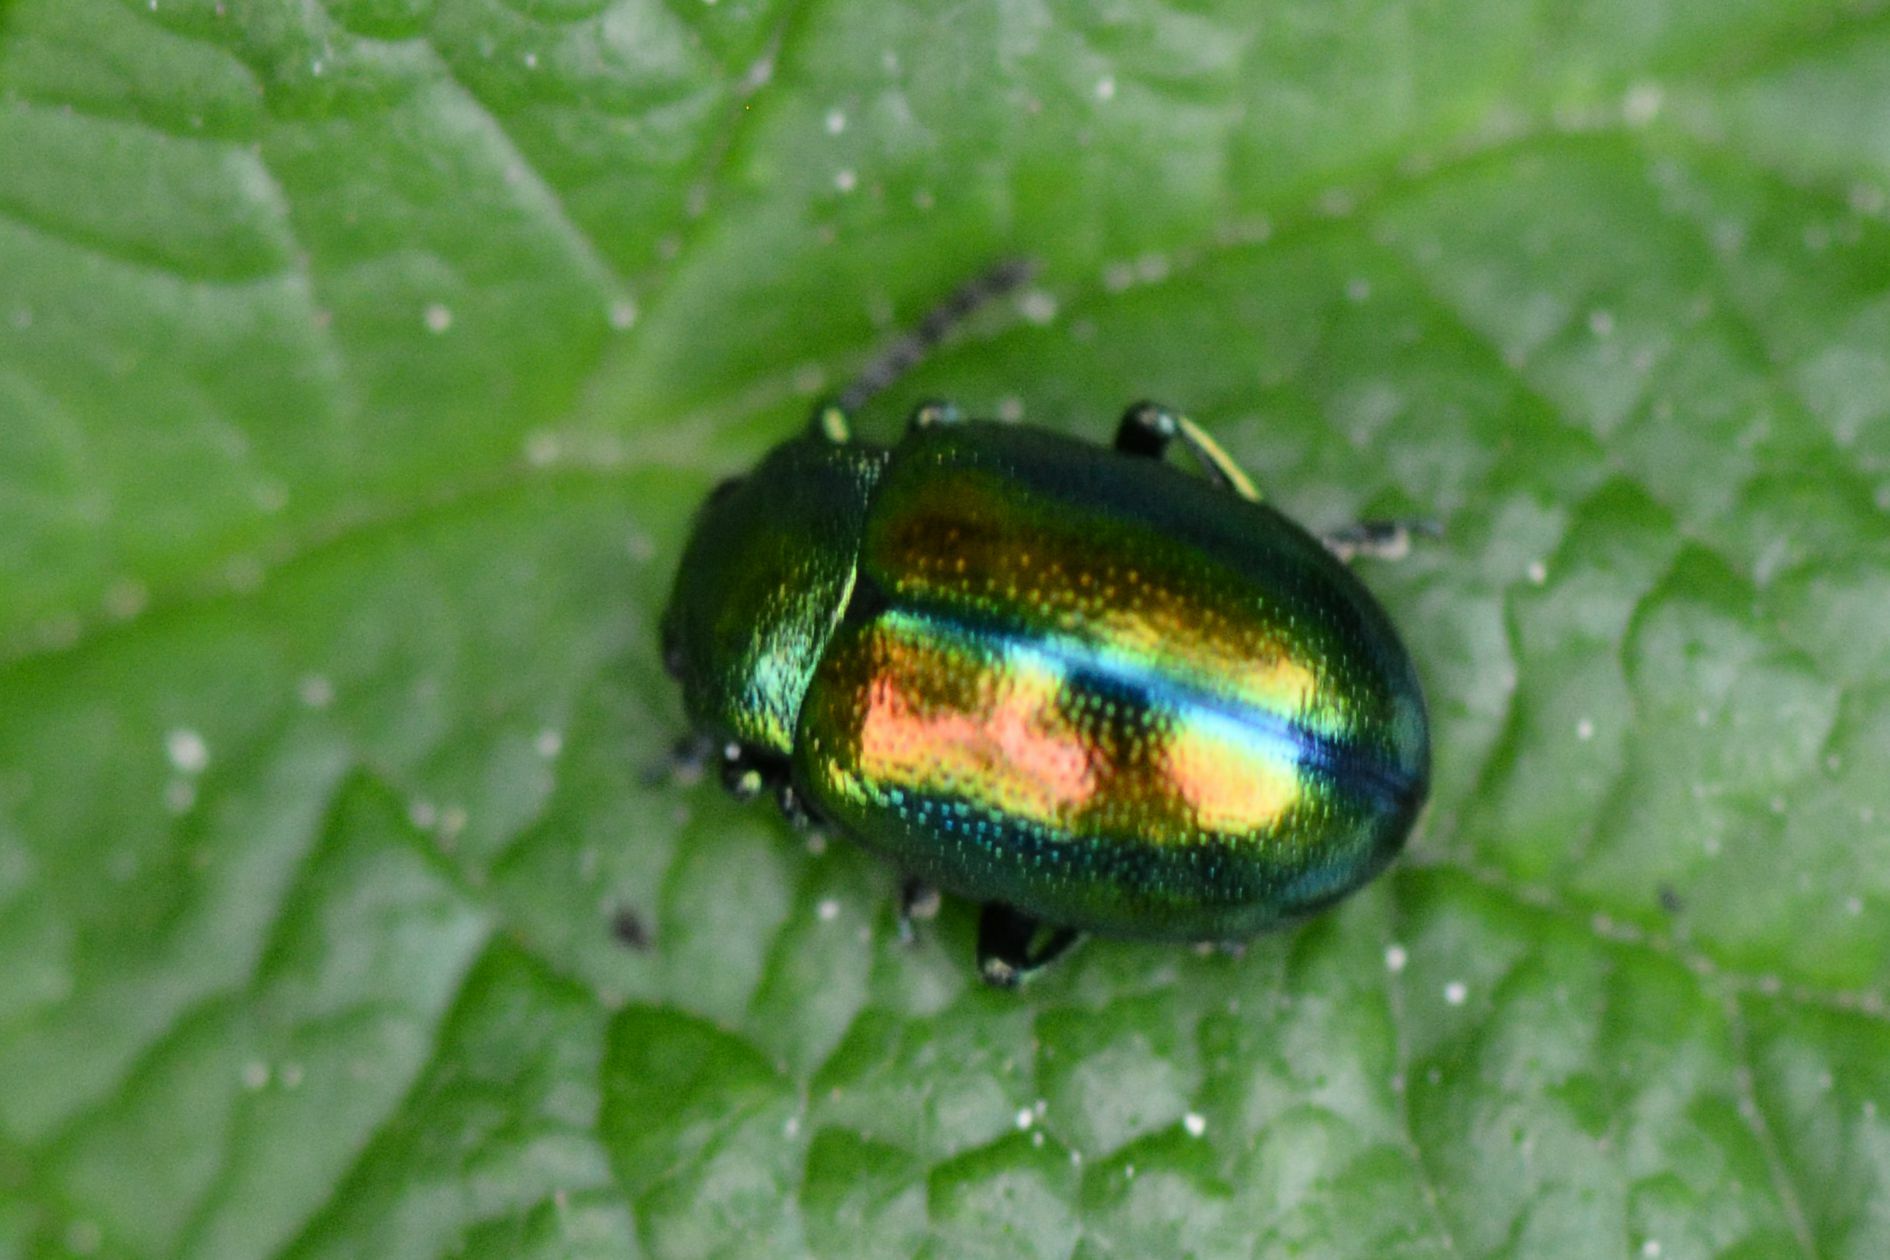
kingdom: Animalia
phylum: Arthropoda
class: Insecta
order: Coleoptera
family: Chrysomelidae
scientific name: Chrysomelidae
